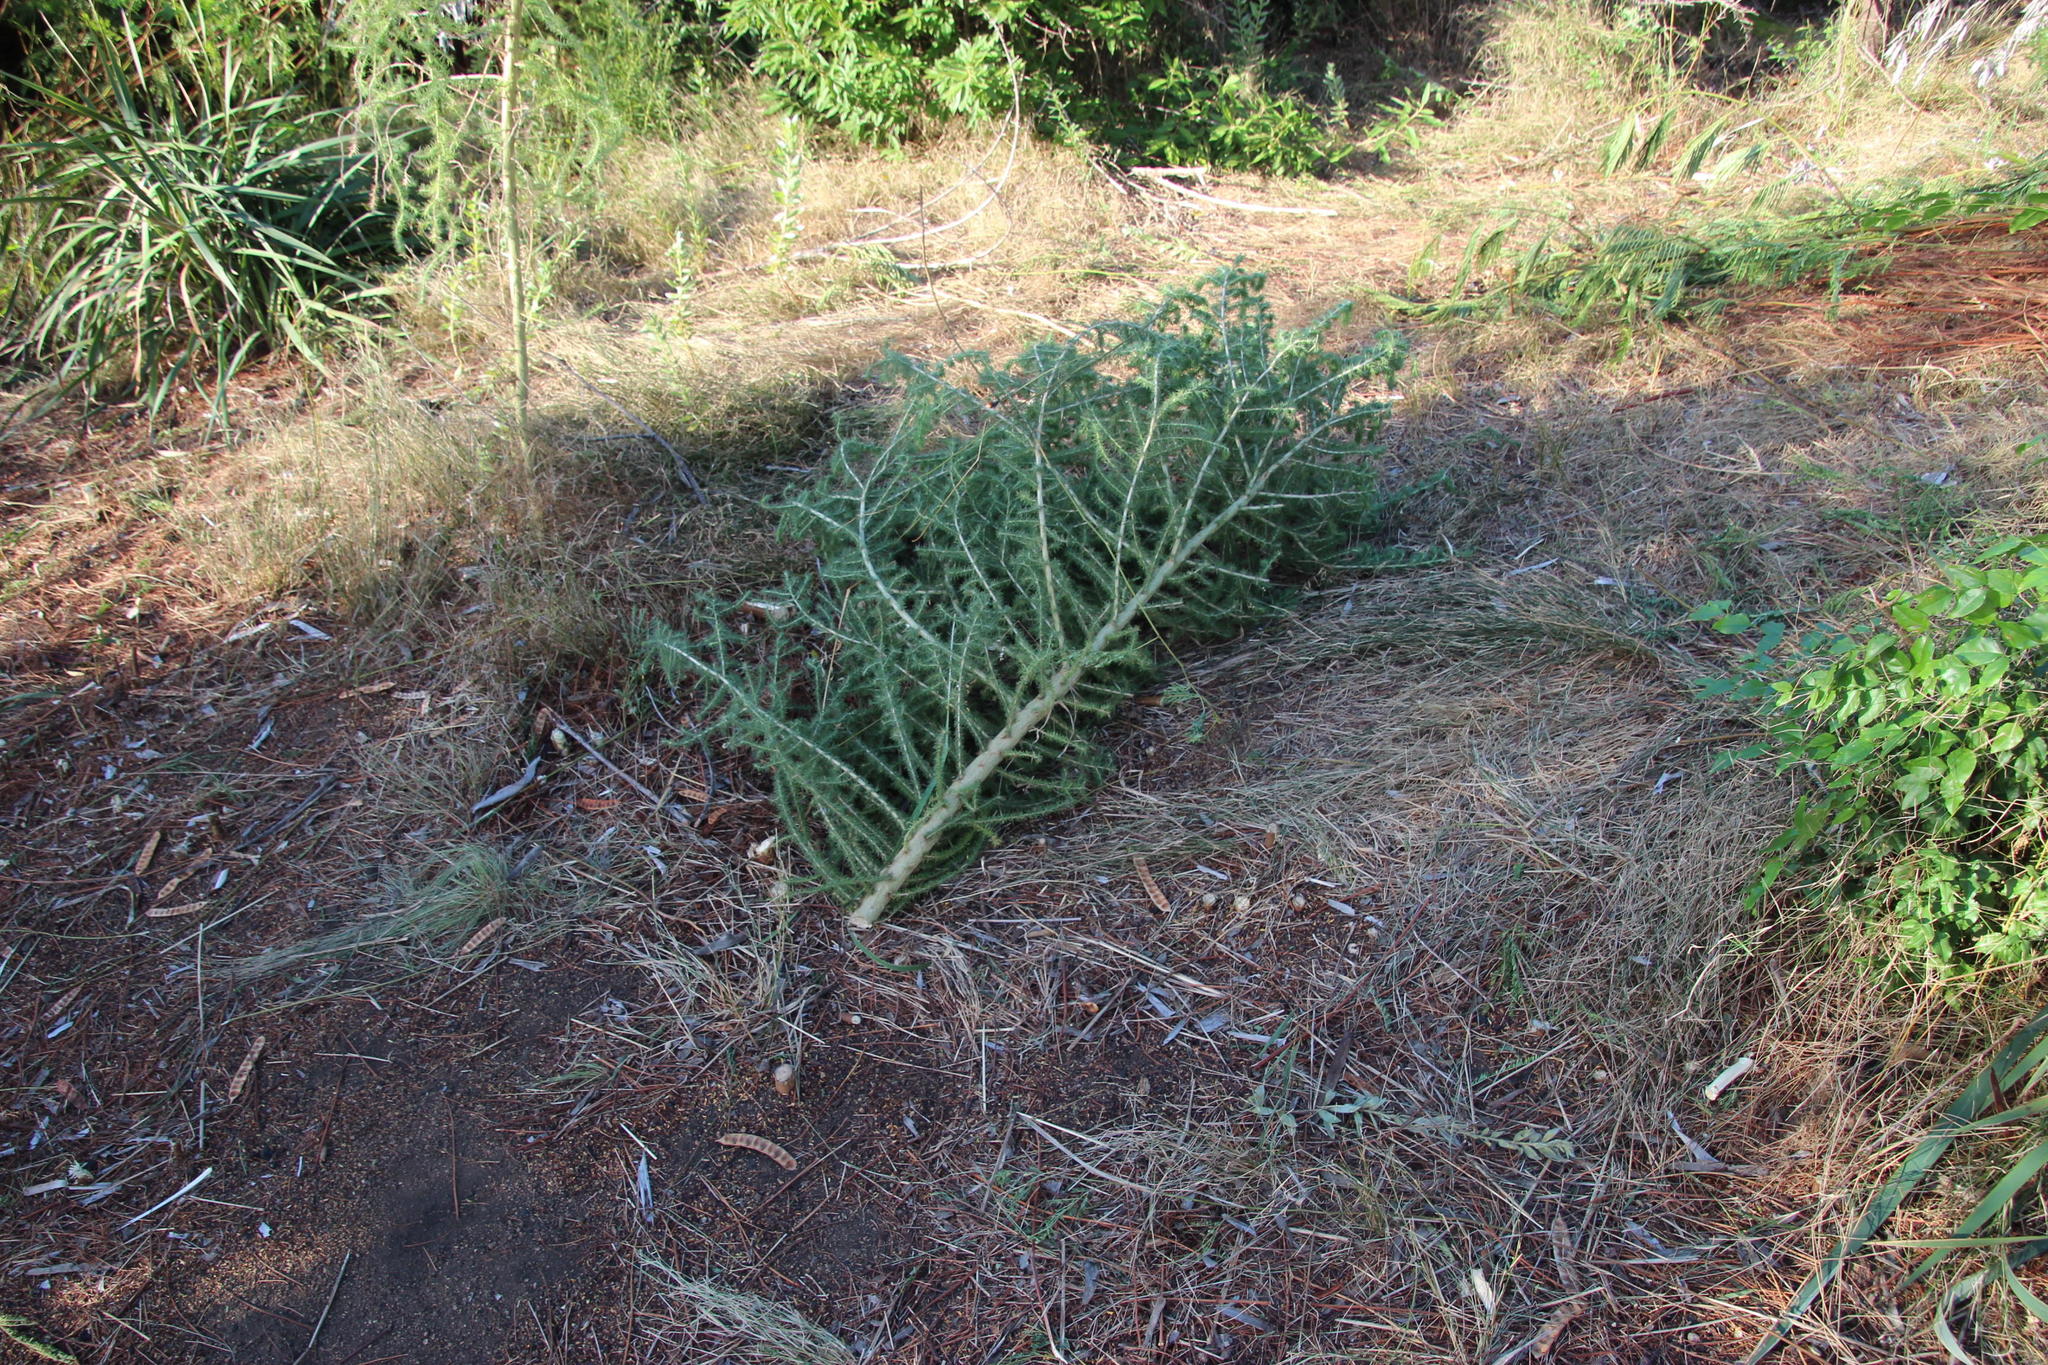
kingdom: Plantae
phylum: Tracheophyta
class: Magnoliopsida
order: Fabales
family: Fabaceae
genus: Aspalathus
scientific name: Aspalathus chenopoda
